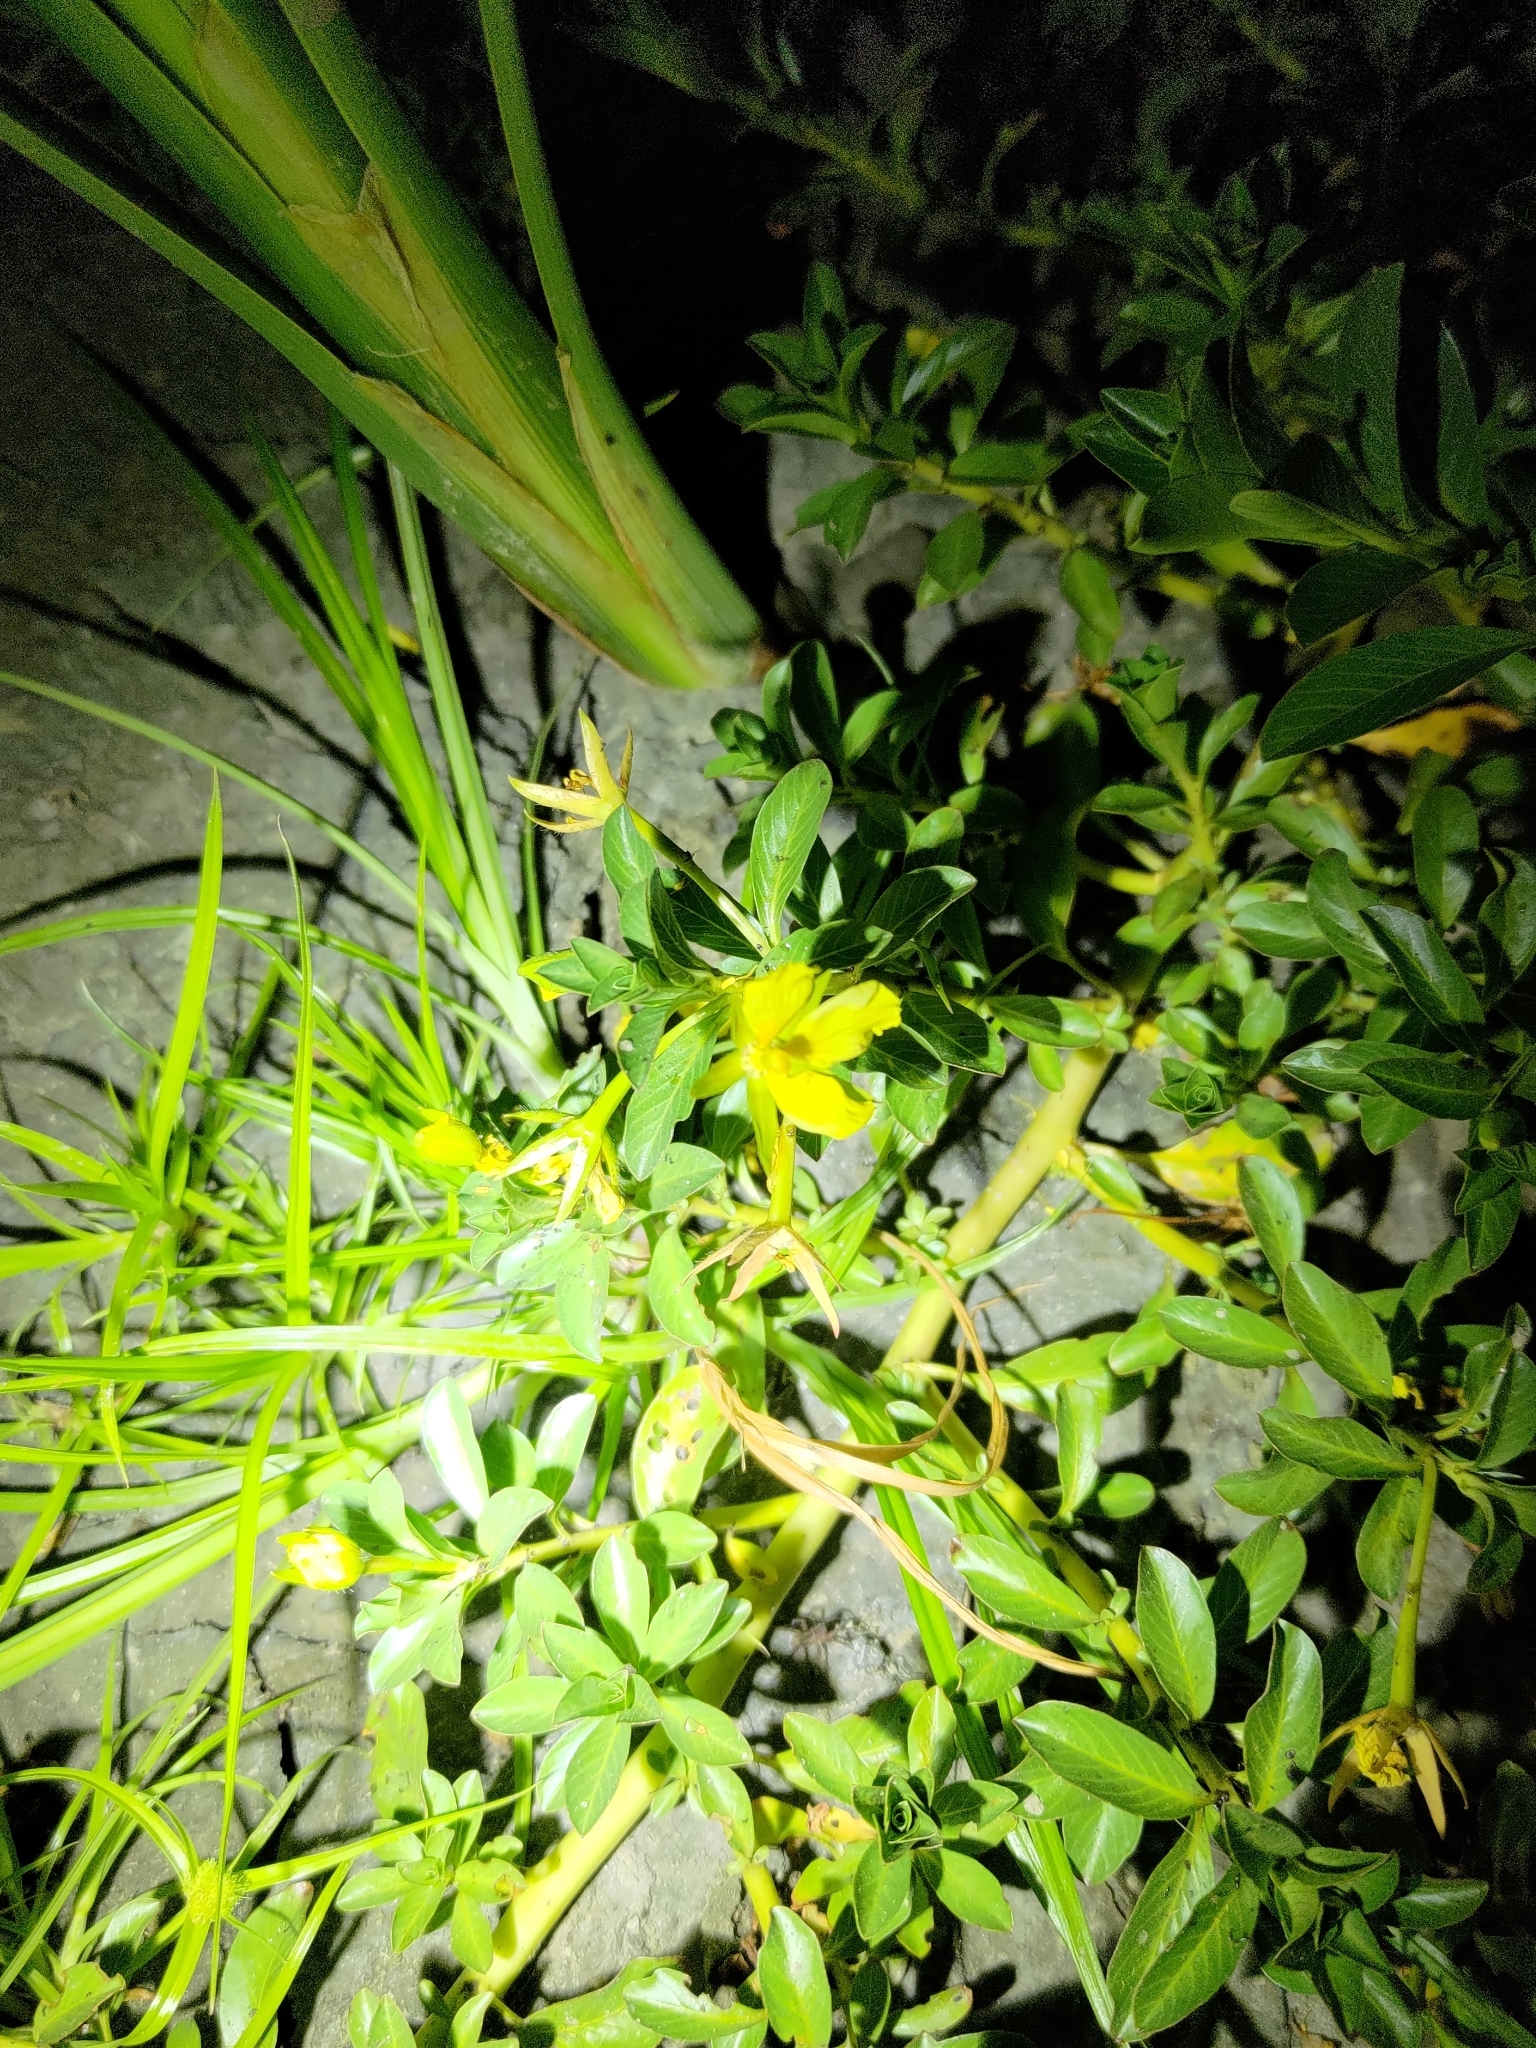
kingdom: Plantae
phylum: Tracheophyta
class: Magnoliopsida
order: Myrtales
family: Onagraceae
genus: Ludwigia
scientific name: Ludwigia taiwanensis
